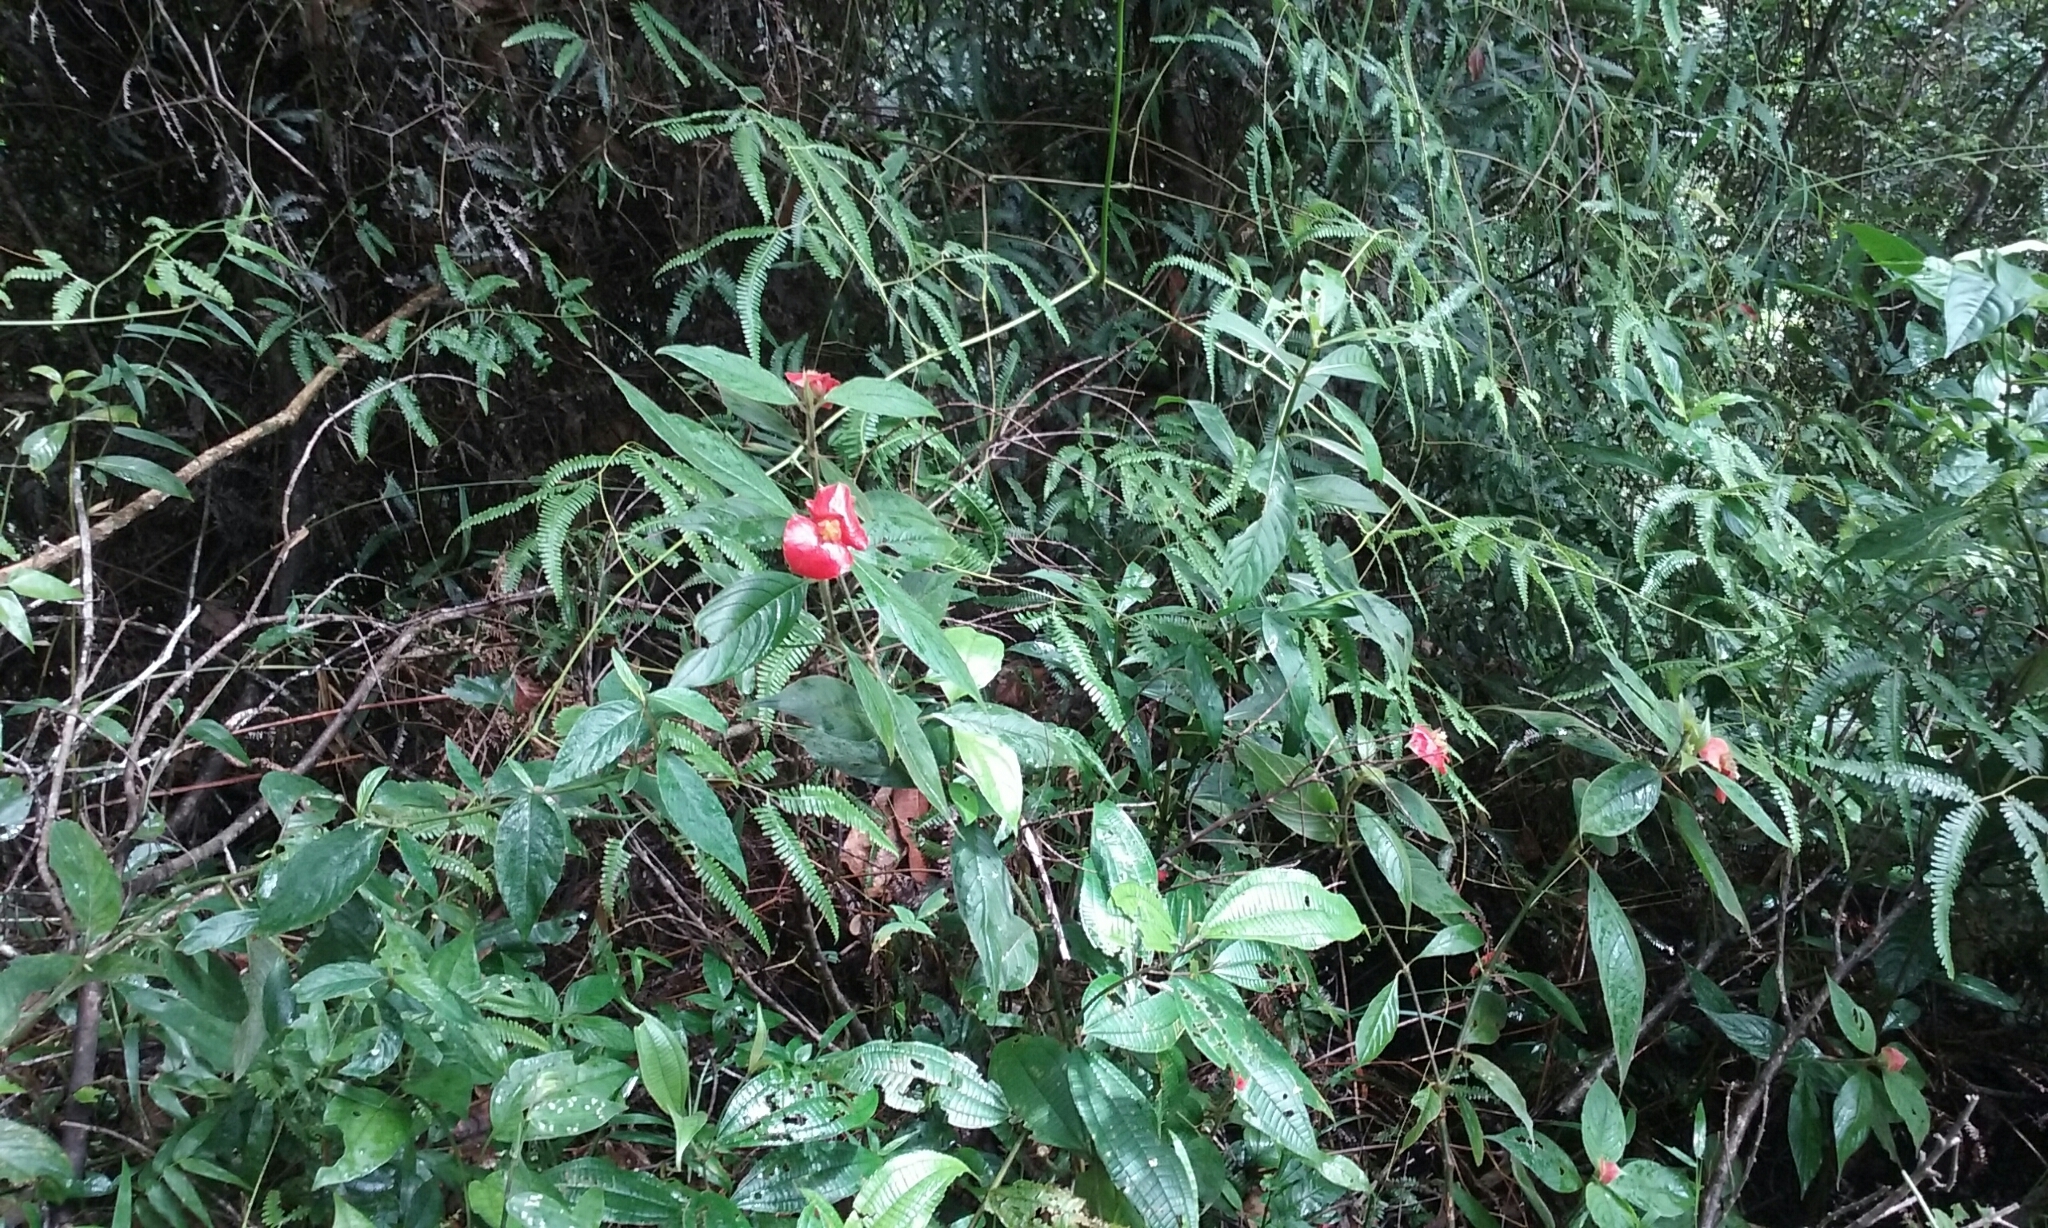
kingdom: Plantae
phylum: Tracheophyta
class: Magnoliopsida
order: Gentianales
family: Rubiaceae
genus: Palicourea
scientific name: Palicourea tomentosa
